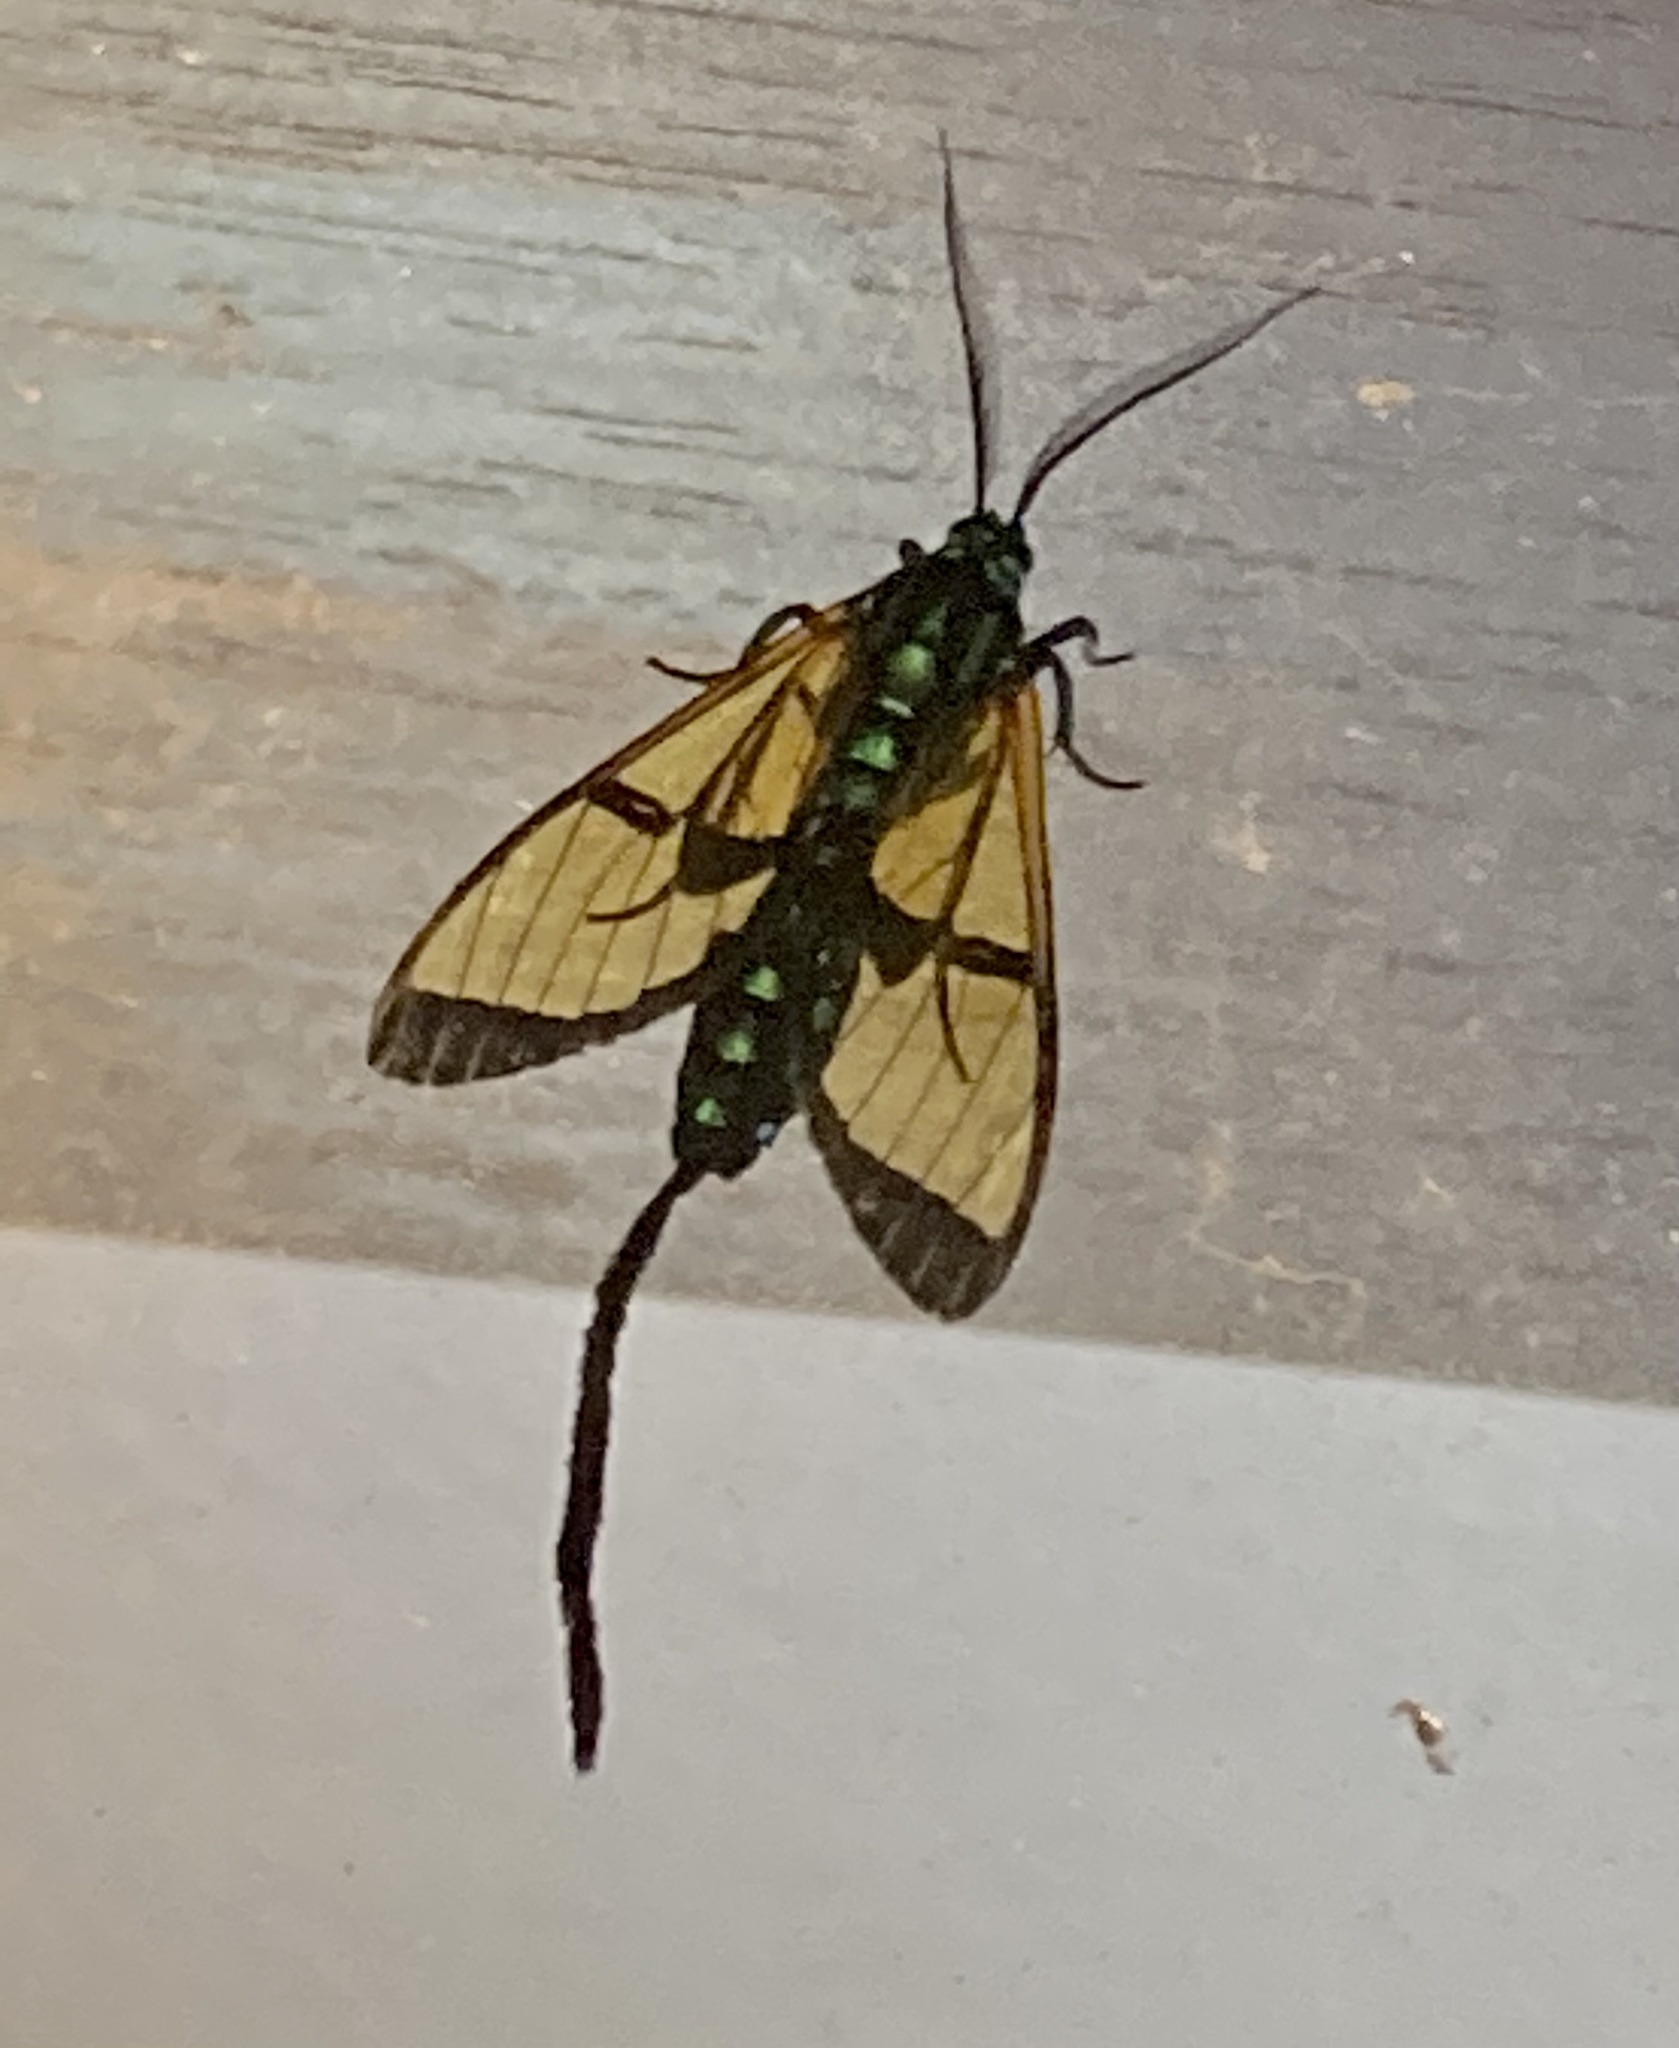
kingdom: Animalia
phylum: Arthropoda
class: Insecta
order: Lepidoptera
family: Erebidae
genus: Trichura
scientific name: Trichura cerberus
